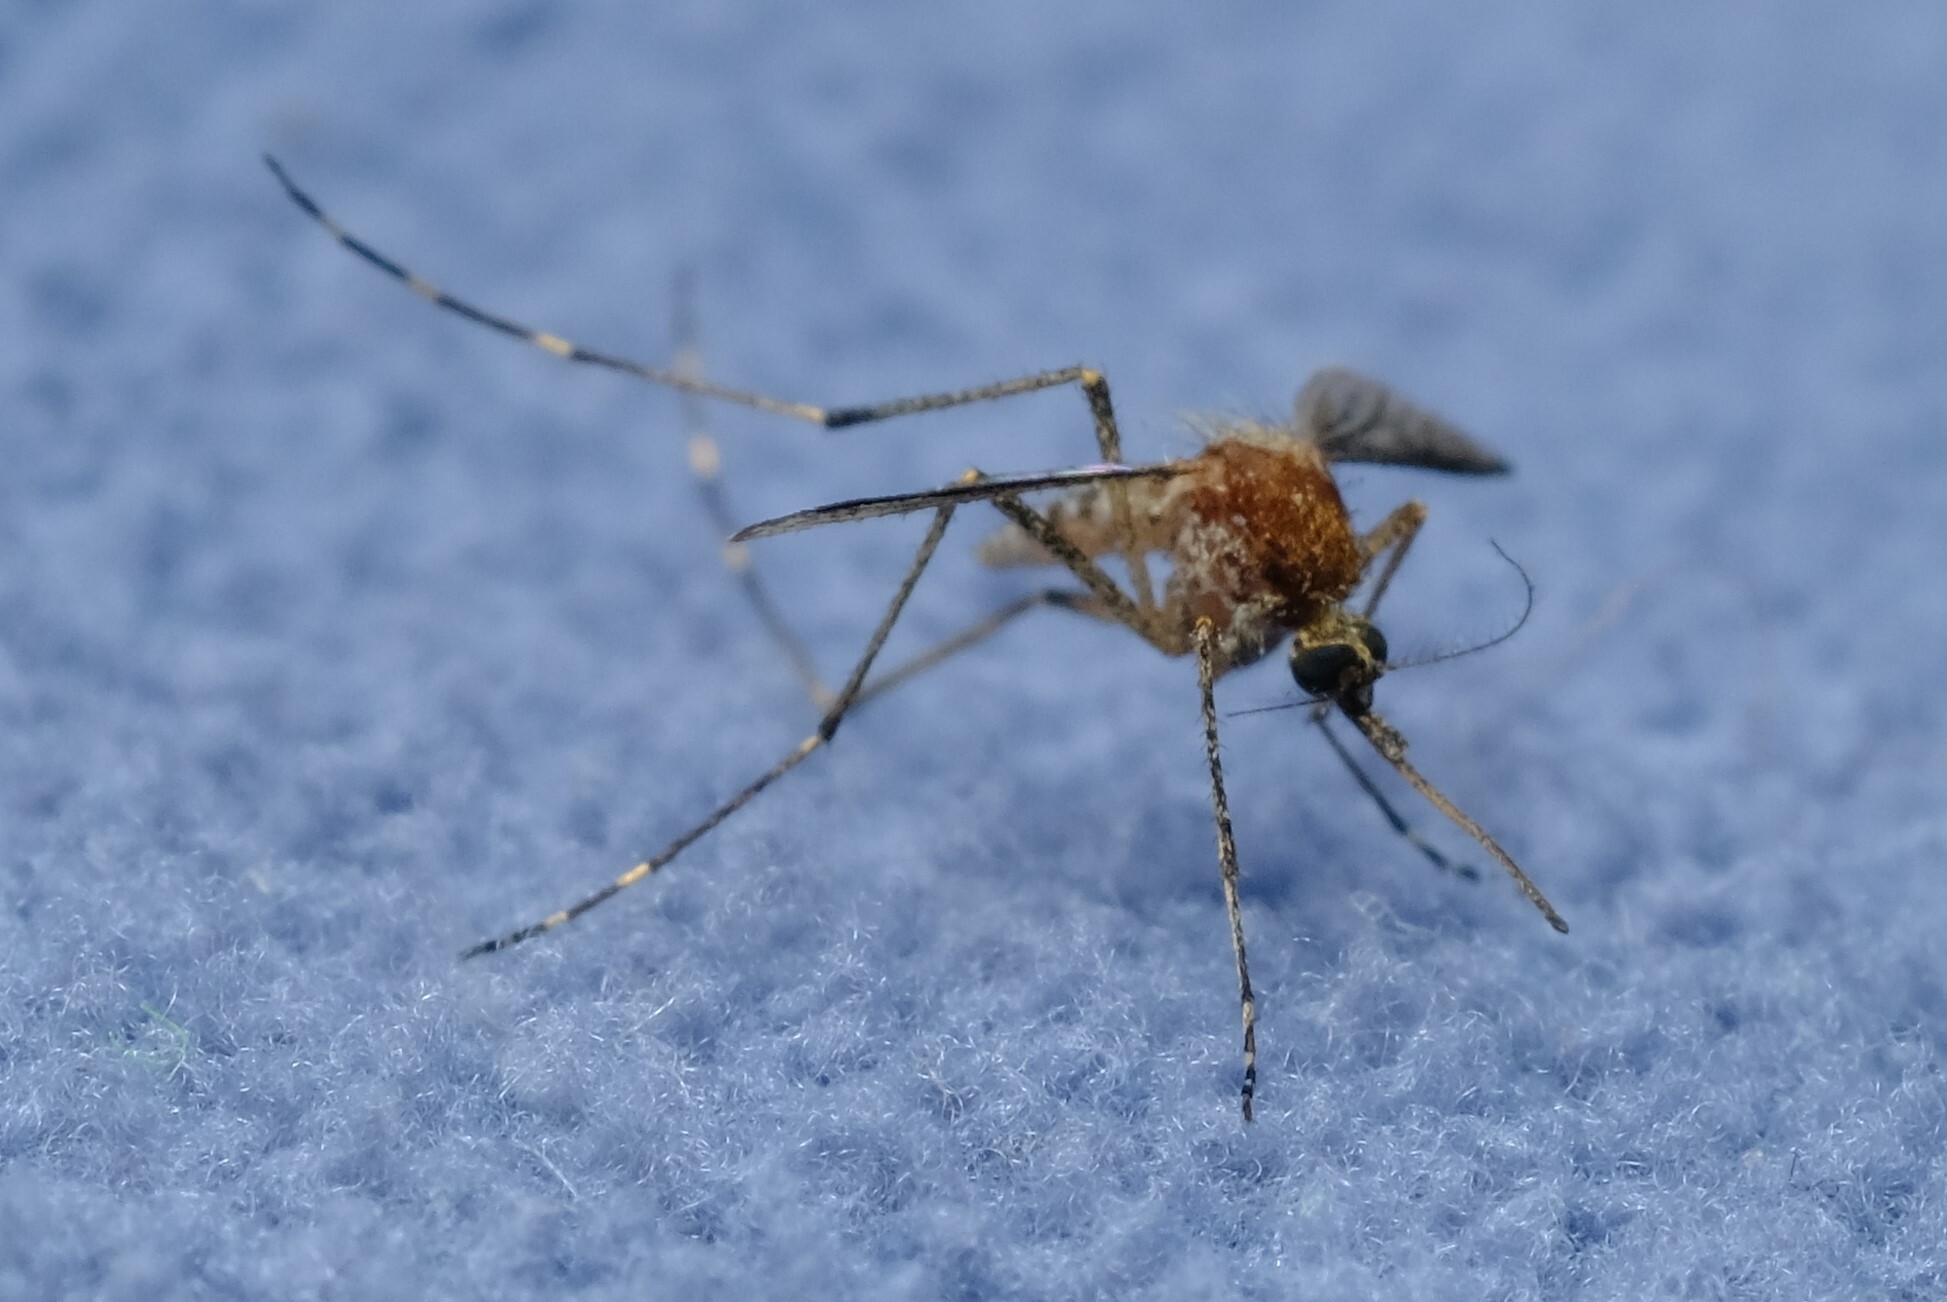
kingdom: Animalia
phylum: Arthropoda
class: Insecta
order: Diptera
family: Culicidae
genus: Aedes
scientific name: Aedes camptorhynchus
